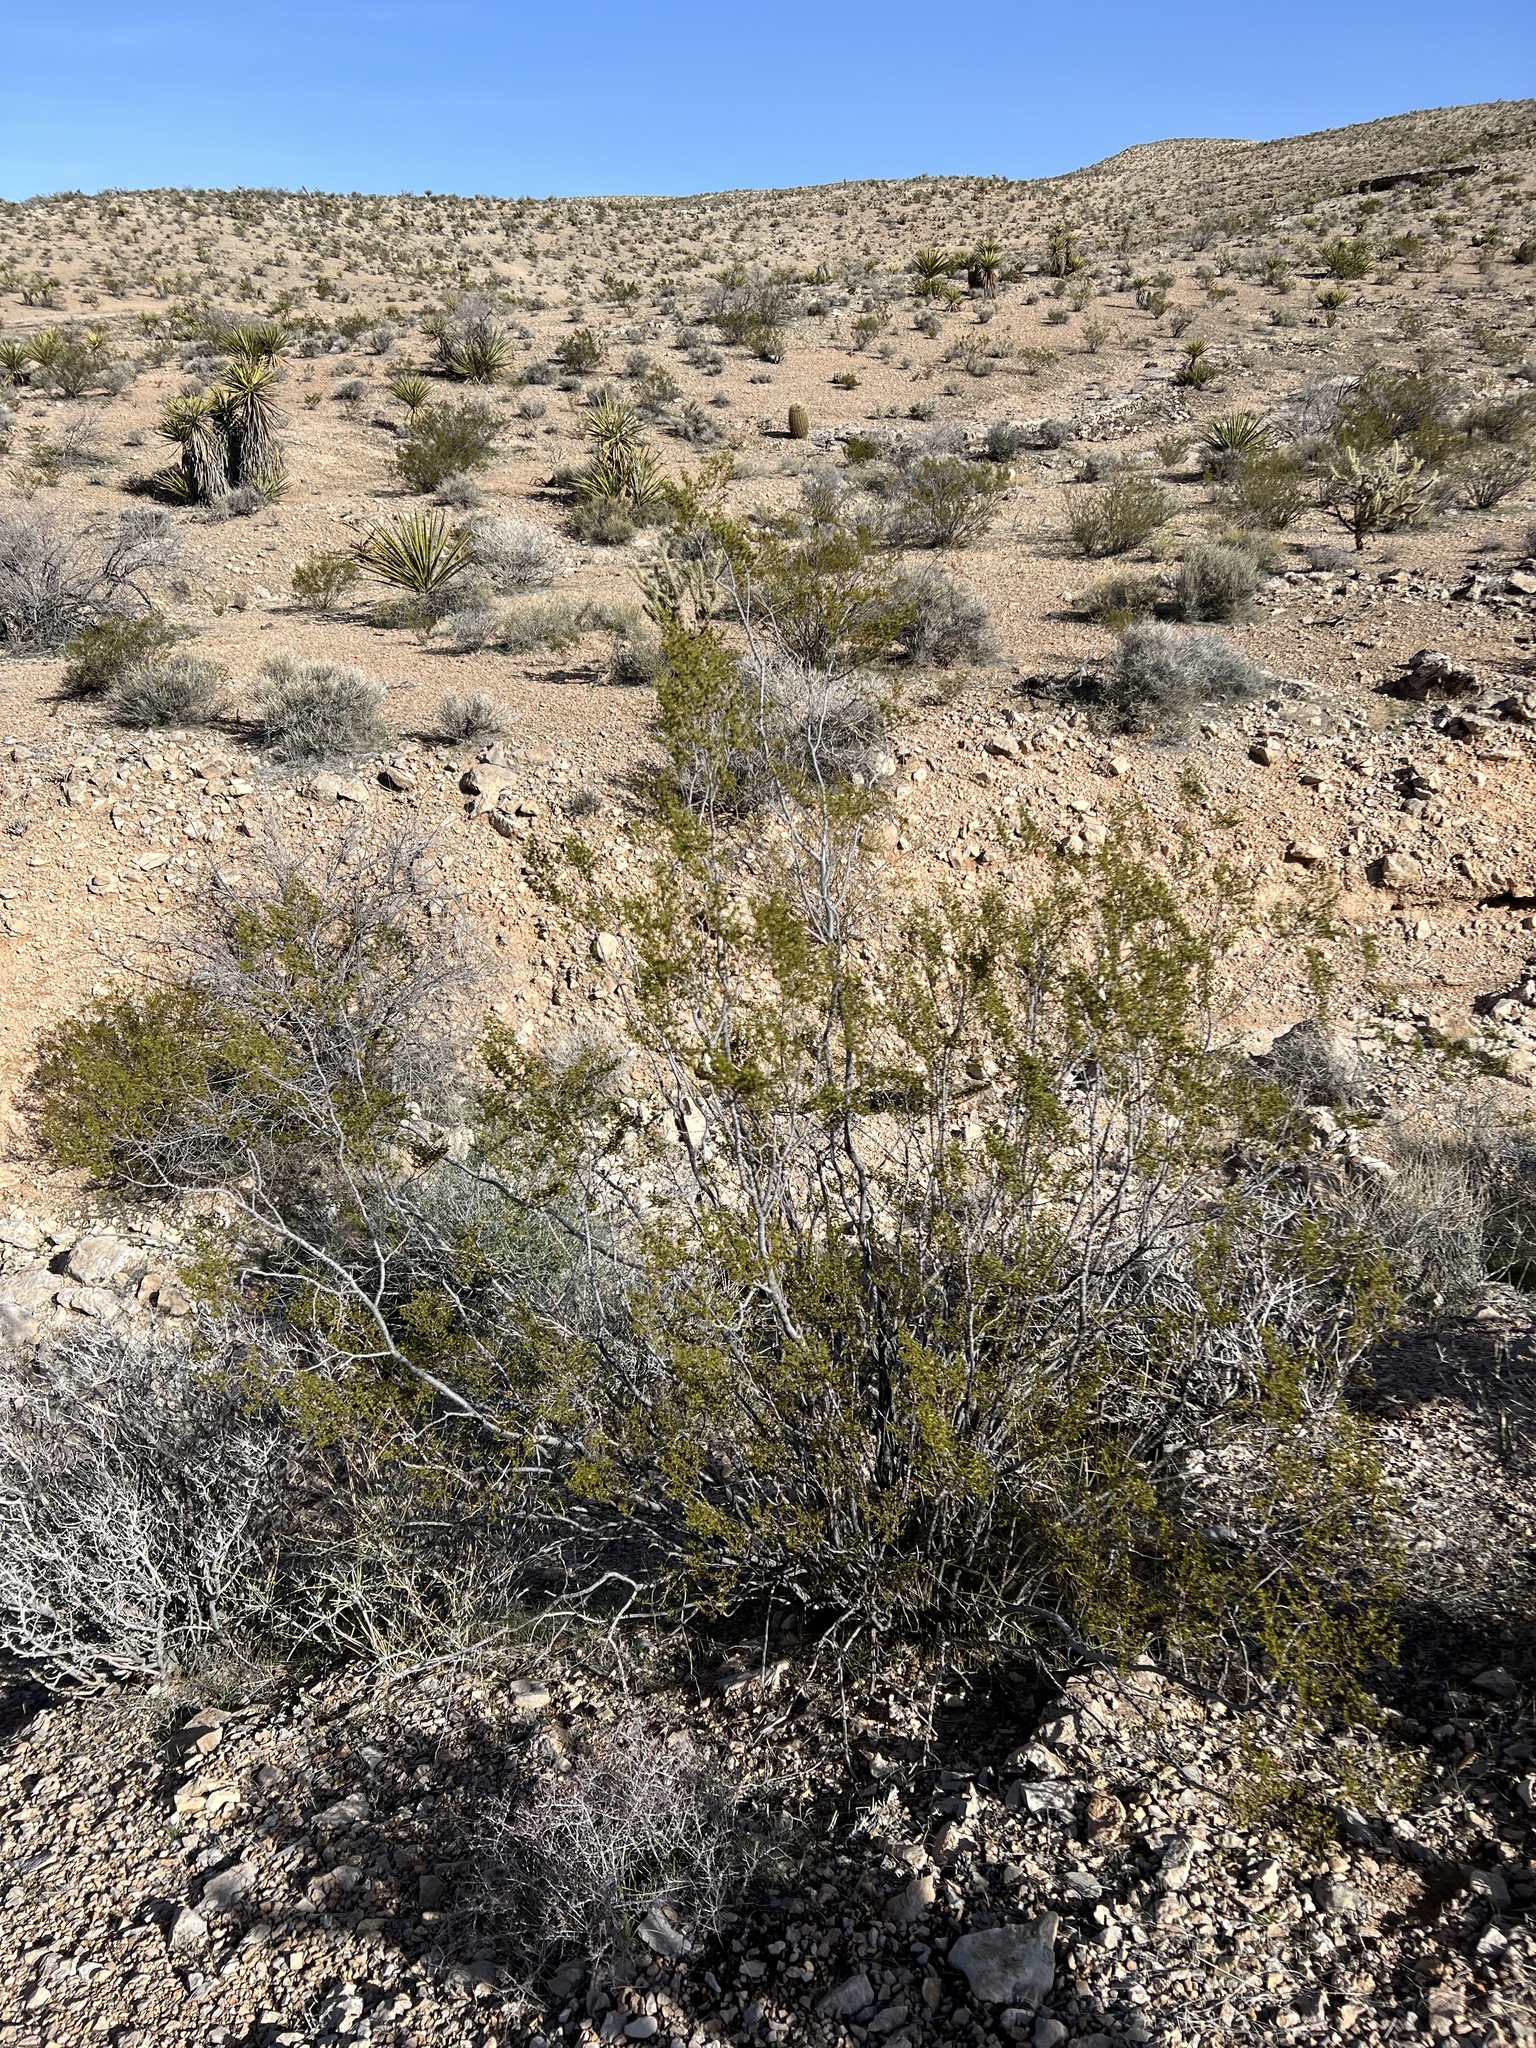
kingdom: Plantae
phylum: Tracheophyta
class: Magnoliopsida
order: Zygophyllales
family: Zygophyllaceae
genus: Larrea
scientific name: Larrea tridentata
